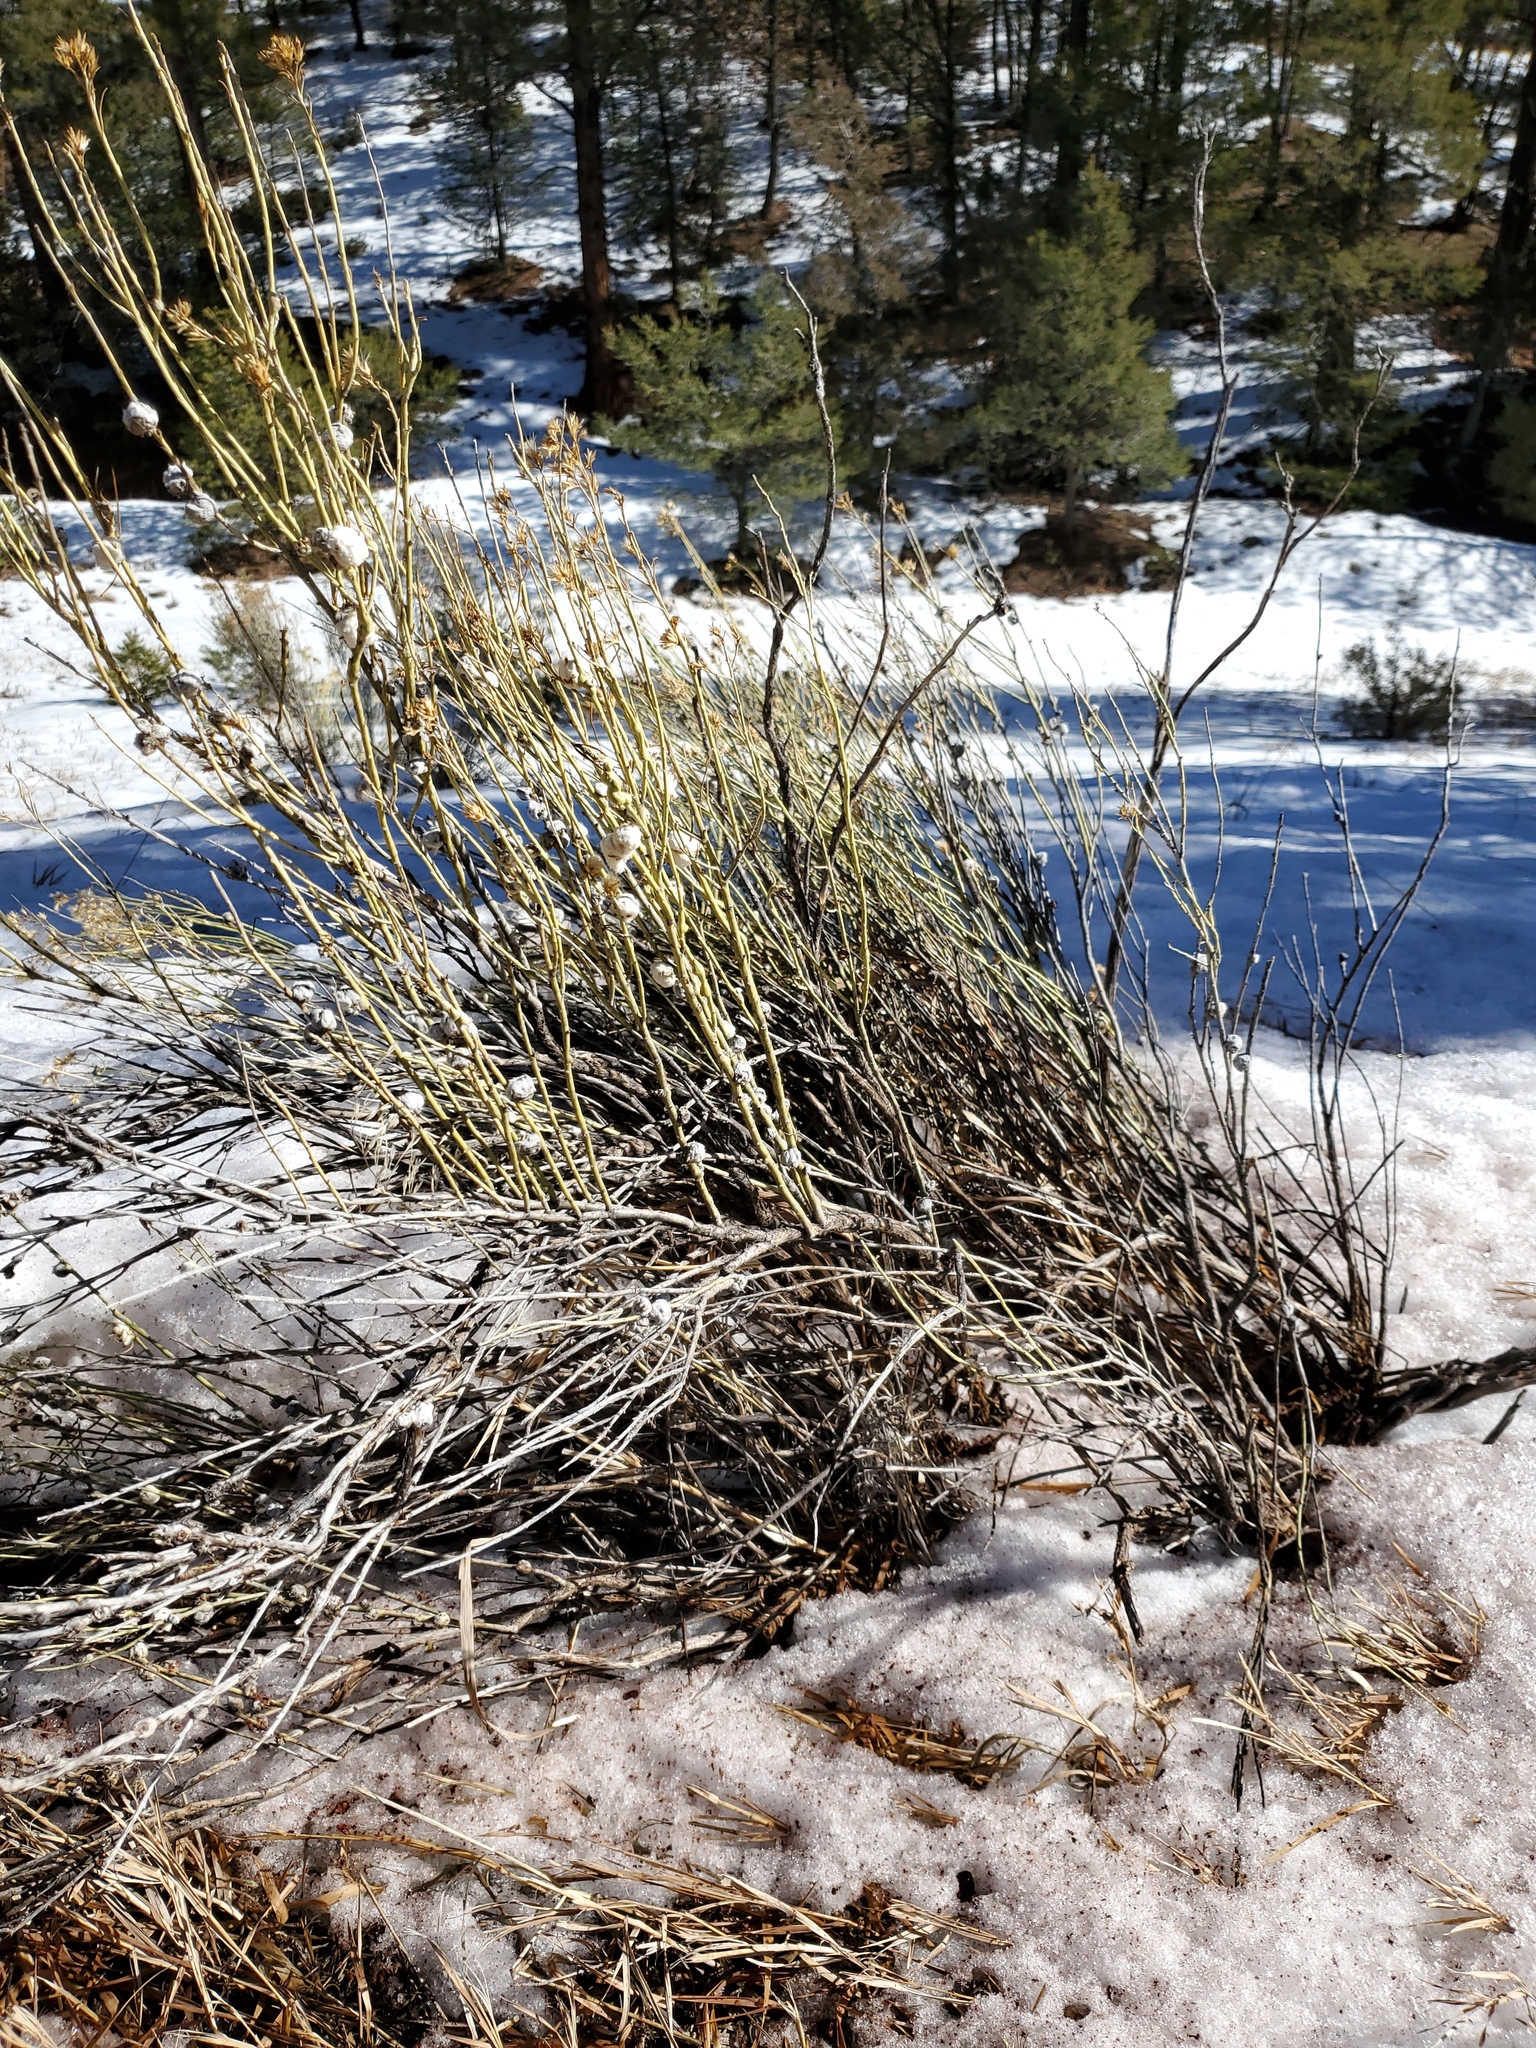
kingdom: Plantae
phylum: Tracheophyta
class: Magnoliopsida
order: Asterales
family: Asteraceae
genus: Ericameria
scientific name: Ericameria nauseosa
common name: Rubber rabbitbrush
